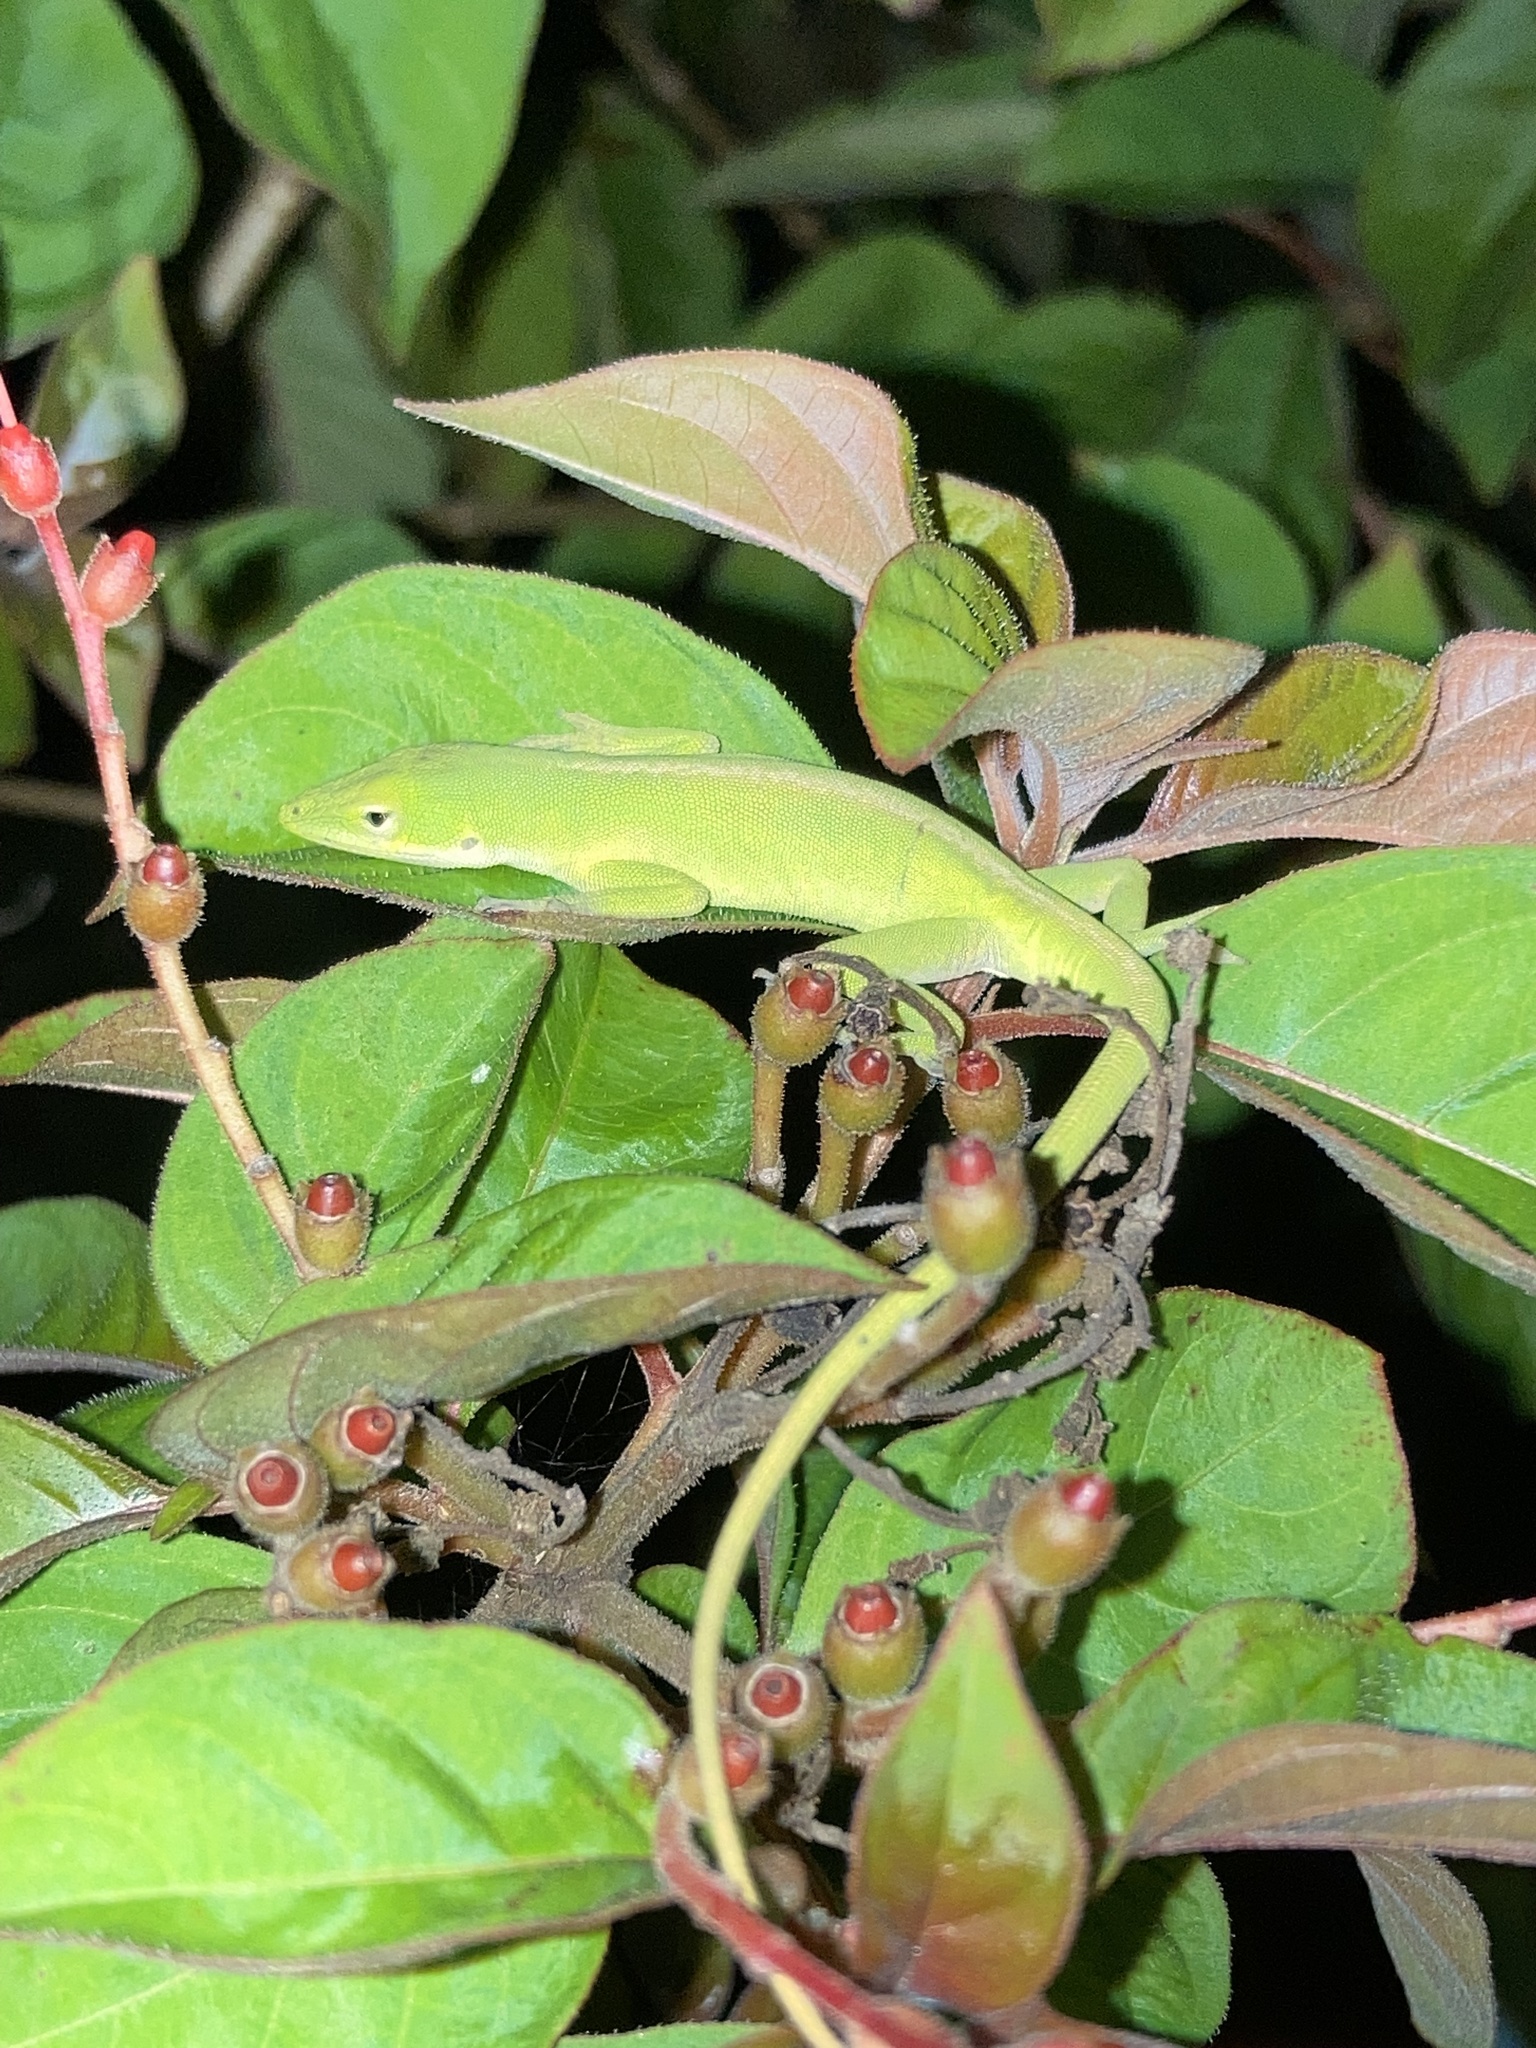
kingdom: Animalia
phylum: Chordata
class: Squamata
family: Dactyloidae
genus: Anolis
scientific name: Anolis carolinensis
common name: Green anole
